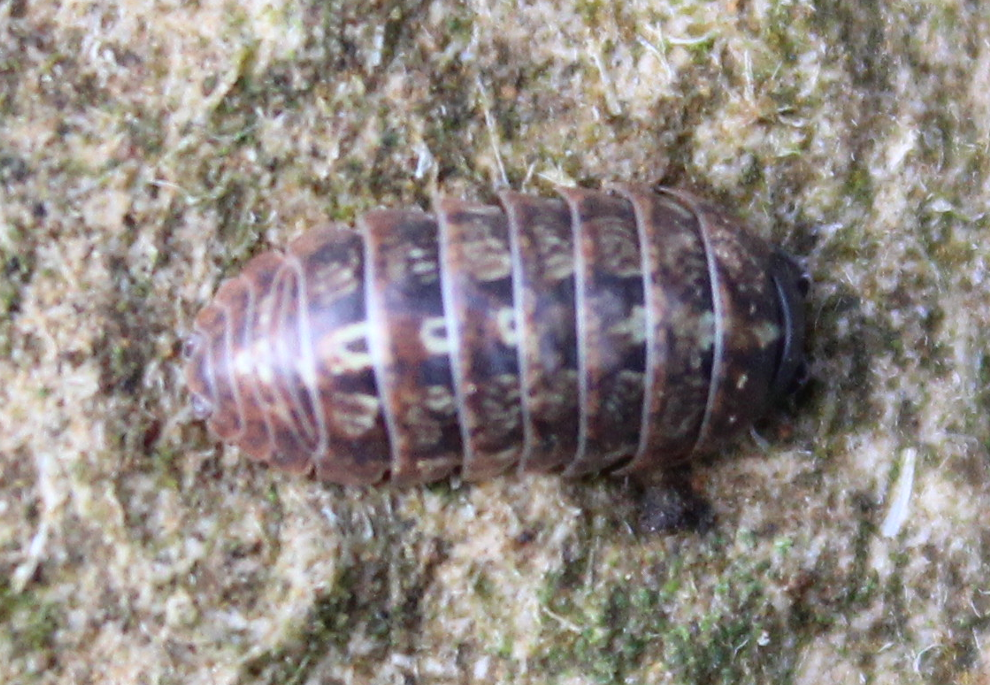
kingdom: Animalia
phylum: Arthropoda
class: Malacostraca
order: Isopoda
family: Armadillidiidae
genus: Armadillidium
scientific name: Armadillidium vulgare
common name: Common pill woodlouse
